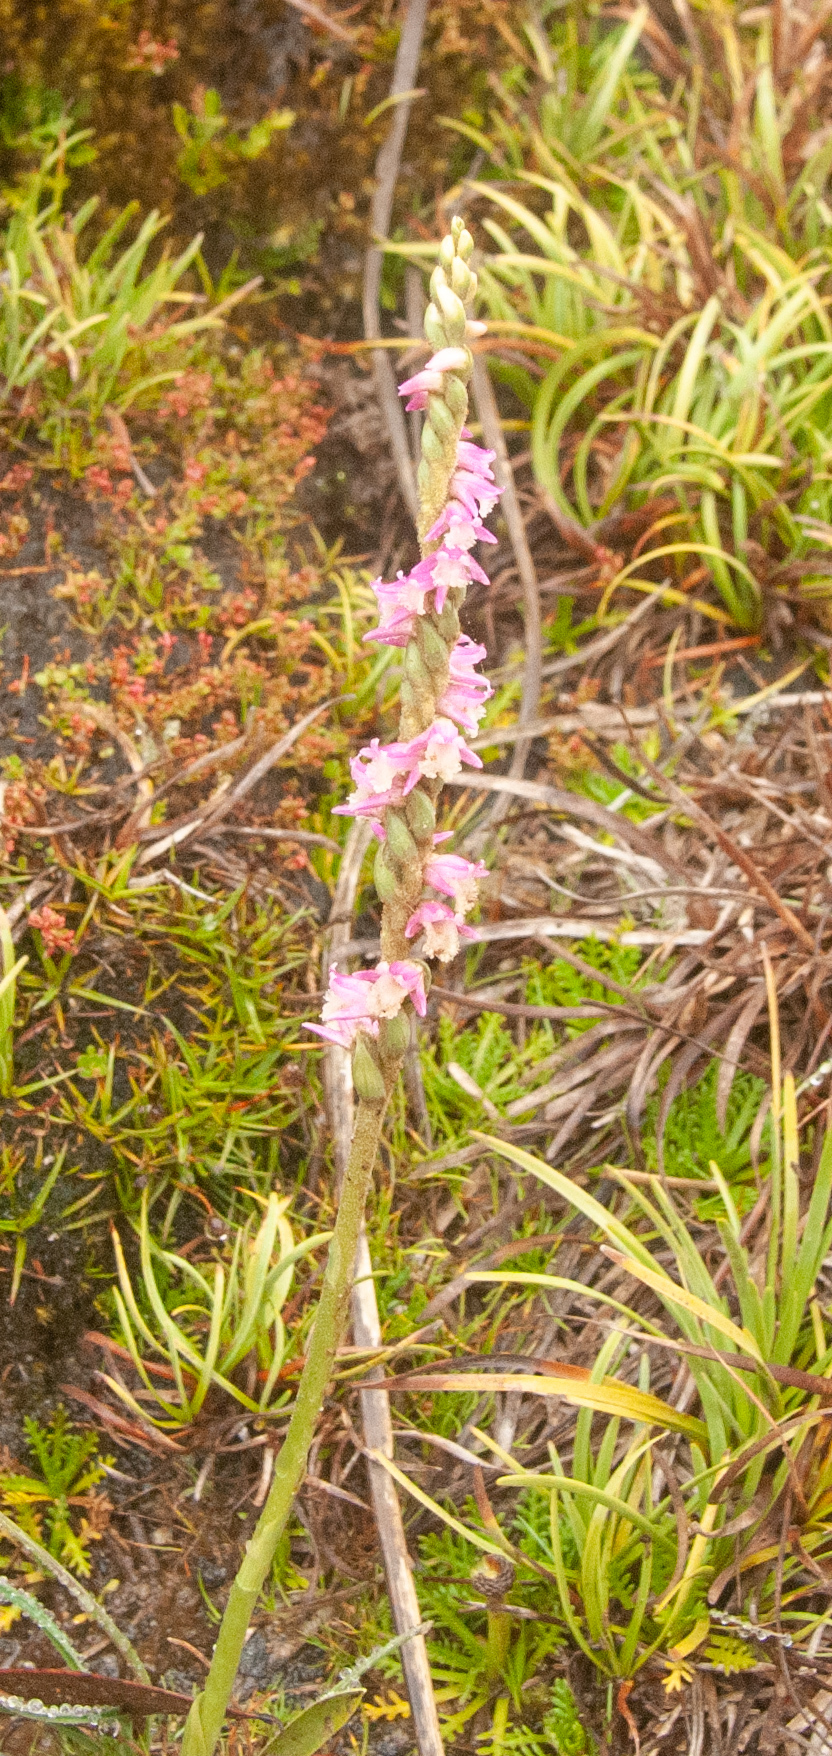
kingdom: Plantae
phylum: Tracheophyta
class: Liliopsida
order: Asparagales
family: Orchidaceae
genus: Spiranthes
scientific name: Spiranthes australis
